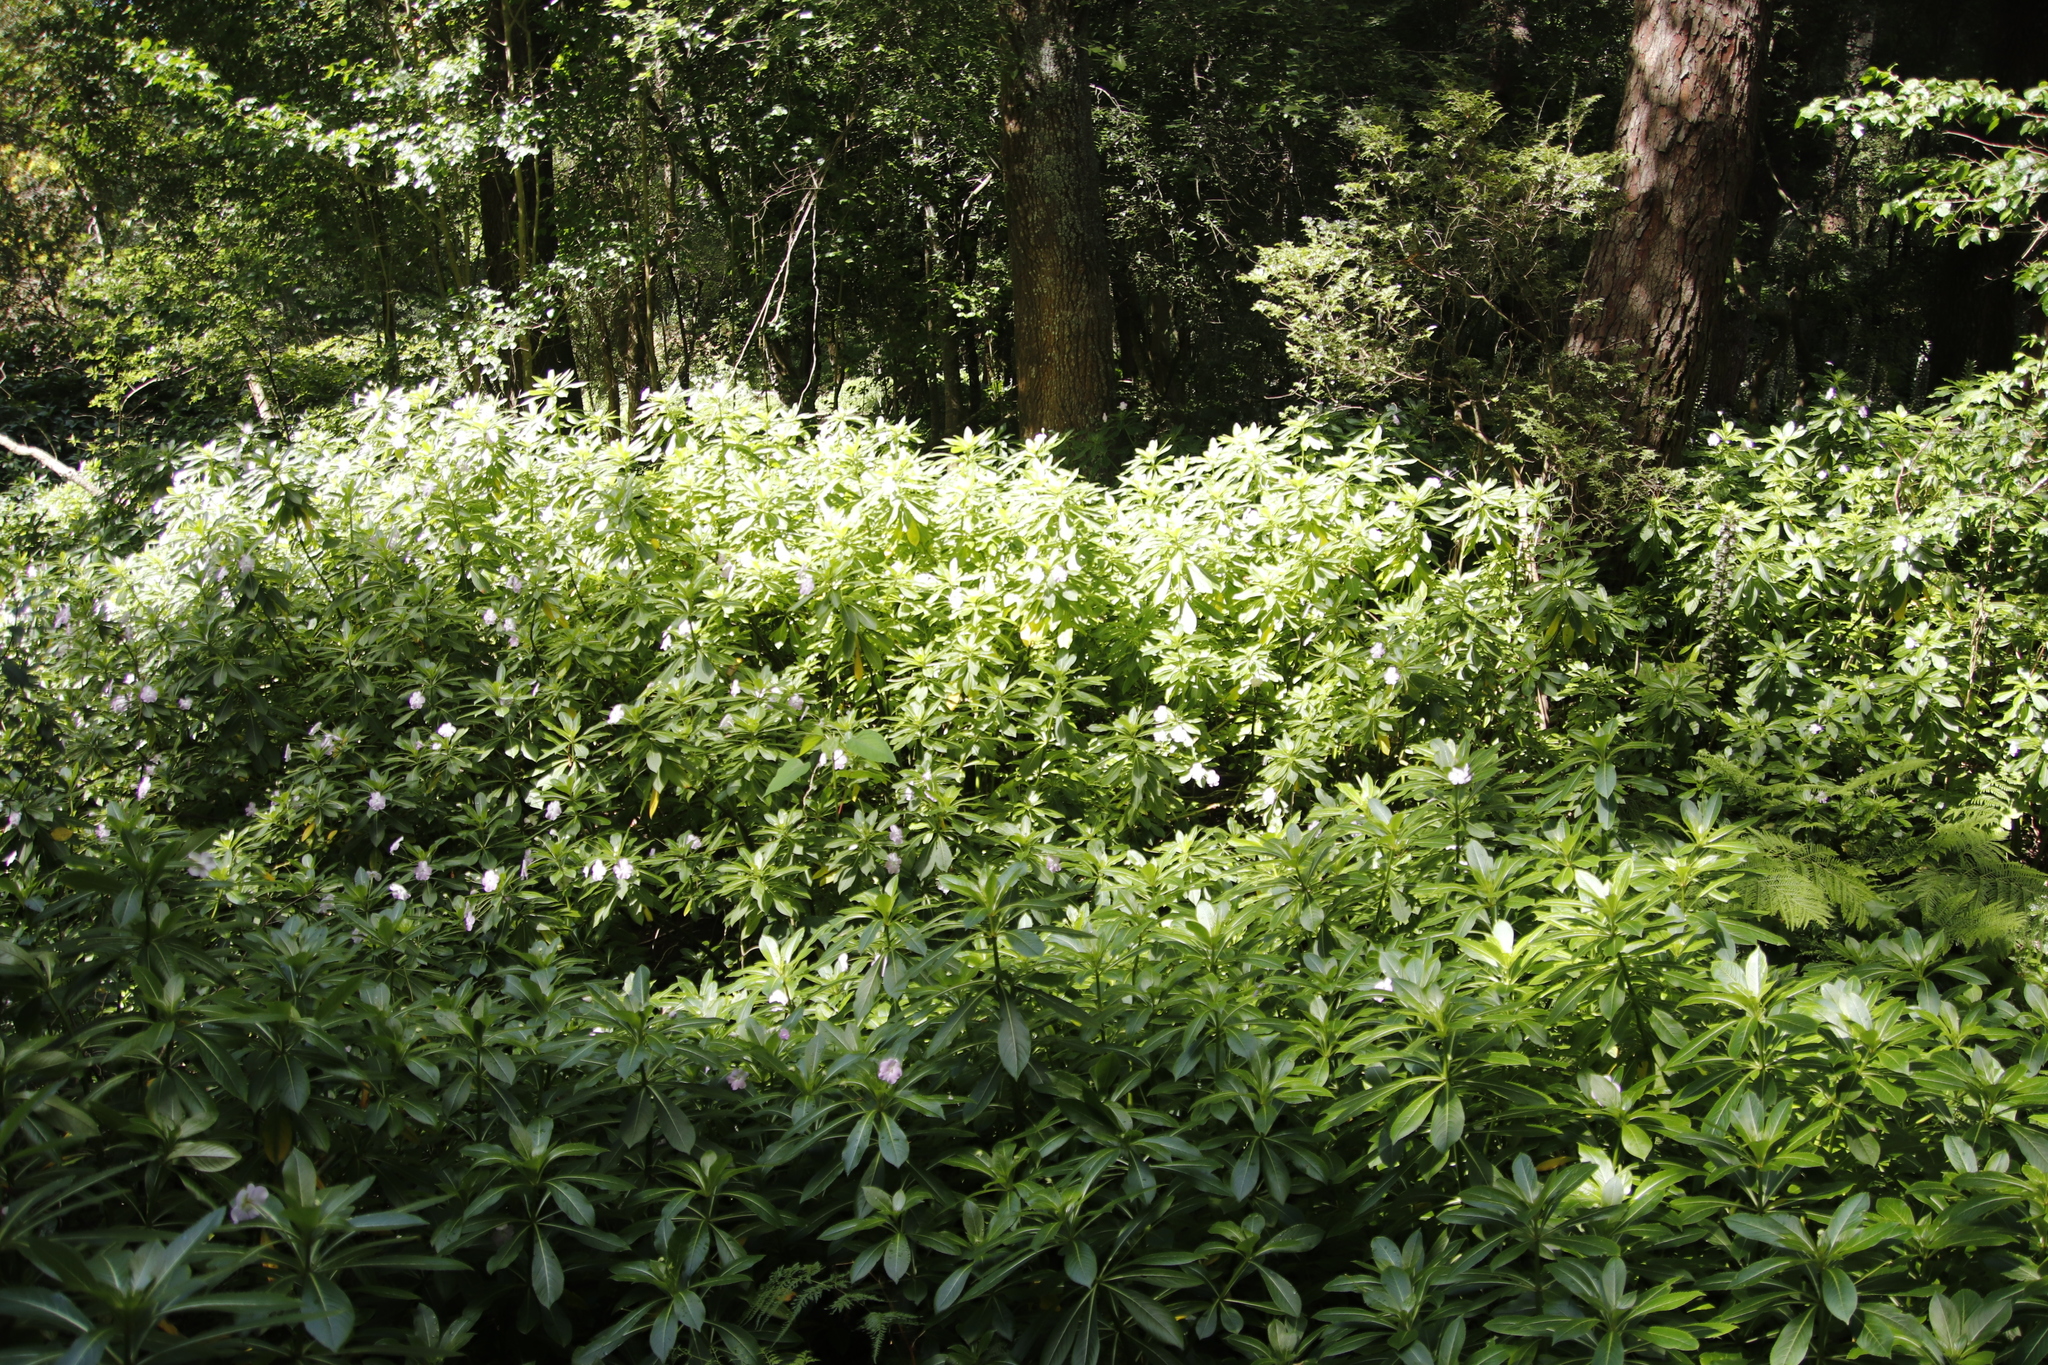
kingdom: Plantae
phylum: Tracheophyta
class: Magnoliopsida
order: Ericales
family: Balsaminaceae
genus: Impatiens
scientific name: Impatiens sodenii
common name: Oliver's touch-me-not
